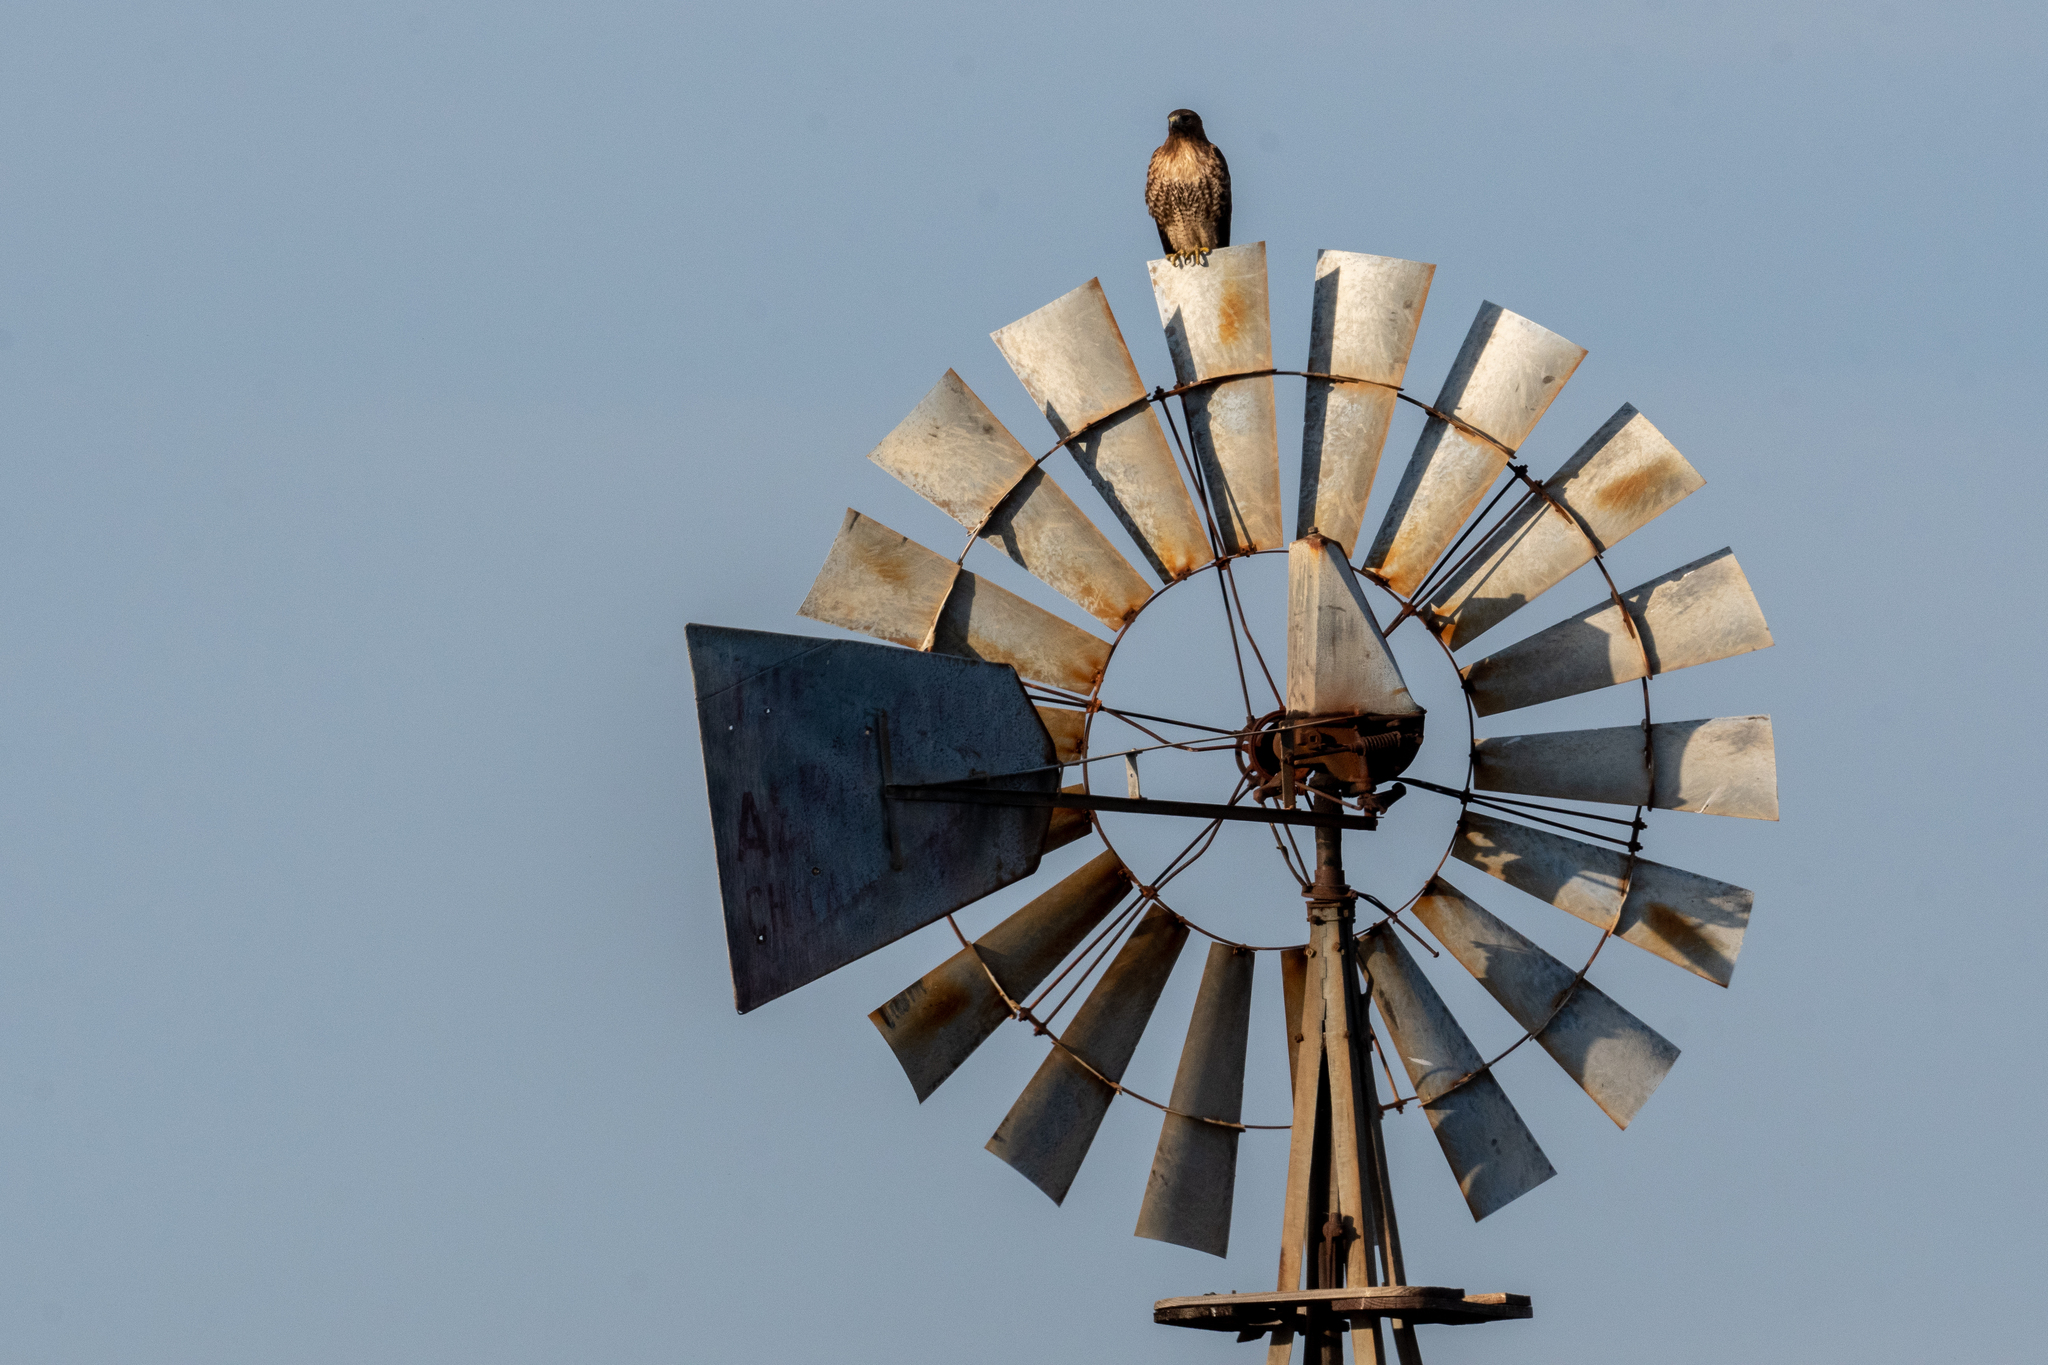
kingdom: Animalia
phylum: Chordata
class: Aves
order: Accipitriformes
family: Accipitridae
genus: Buteo
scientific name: Buteo jamaicensis
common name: Red-tailed hawk
